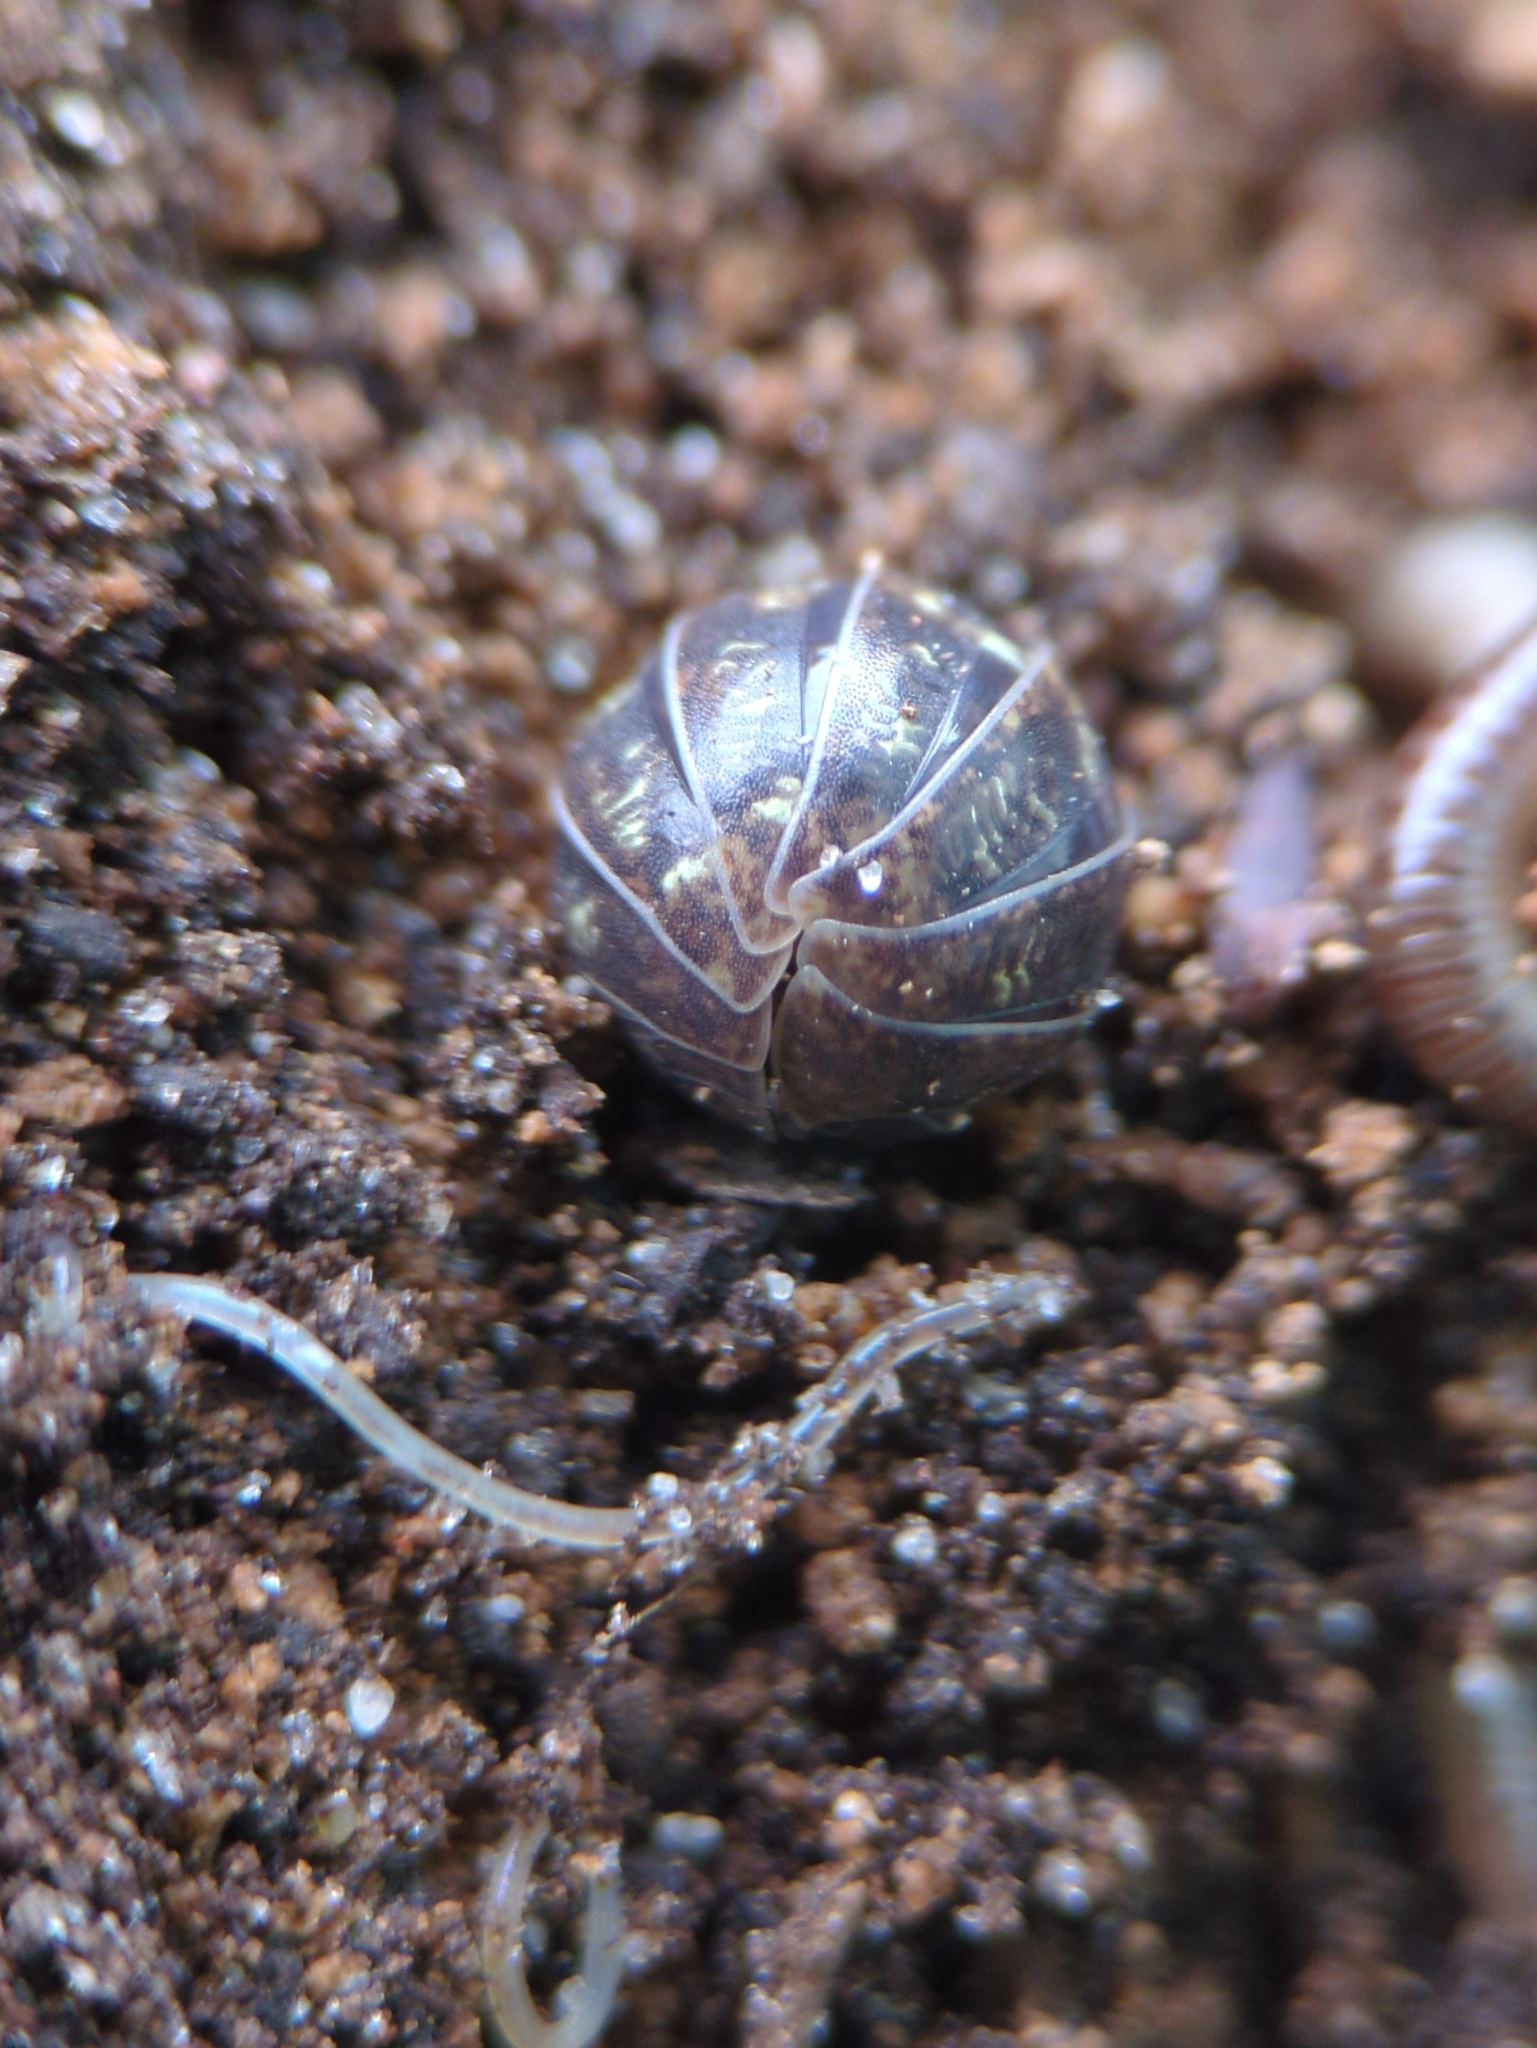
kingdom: Animalia
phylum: Arthropoda
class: Malacostraca
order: Isopoda
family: Armadillidiidae
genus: Armadillidium
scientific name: Armadillidium vulgare
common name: Common pill woodlouse
